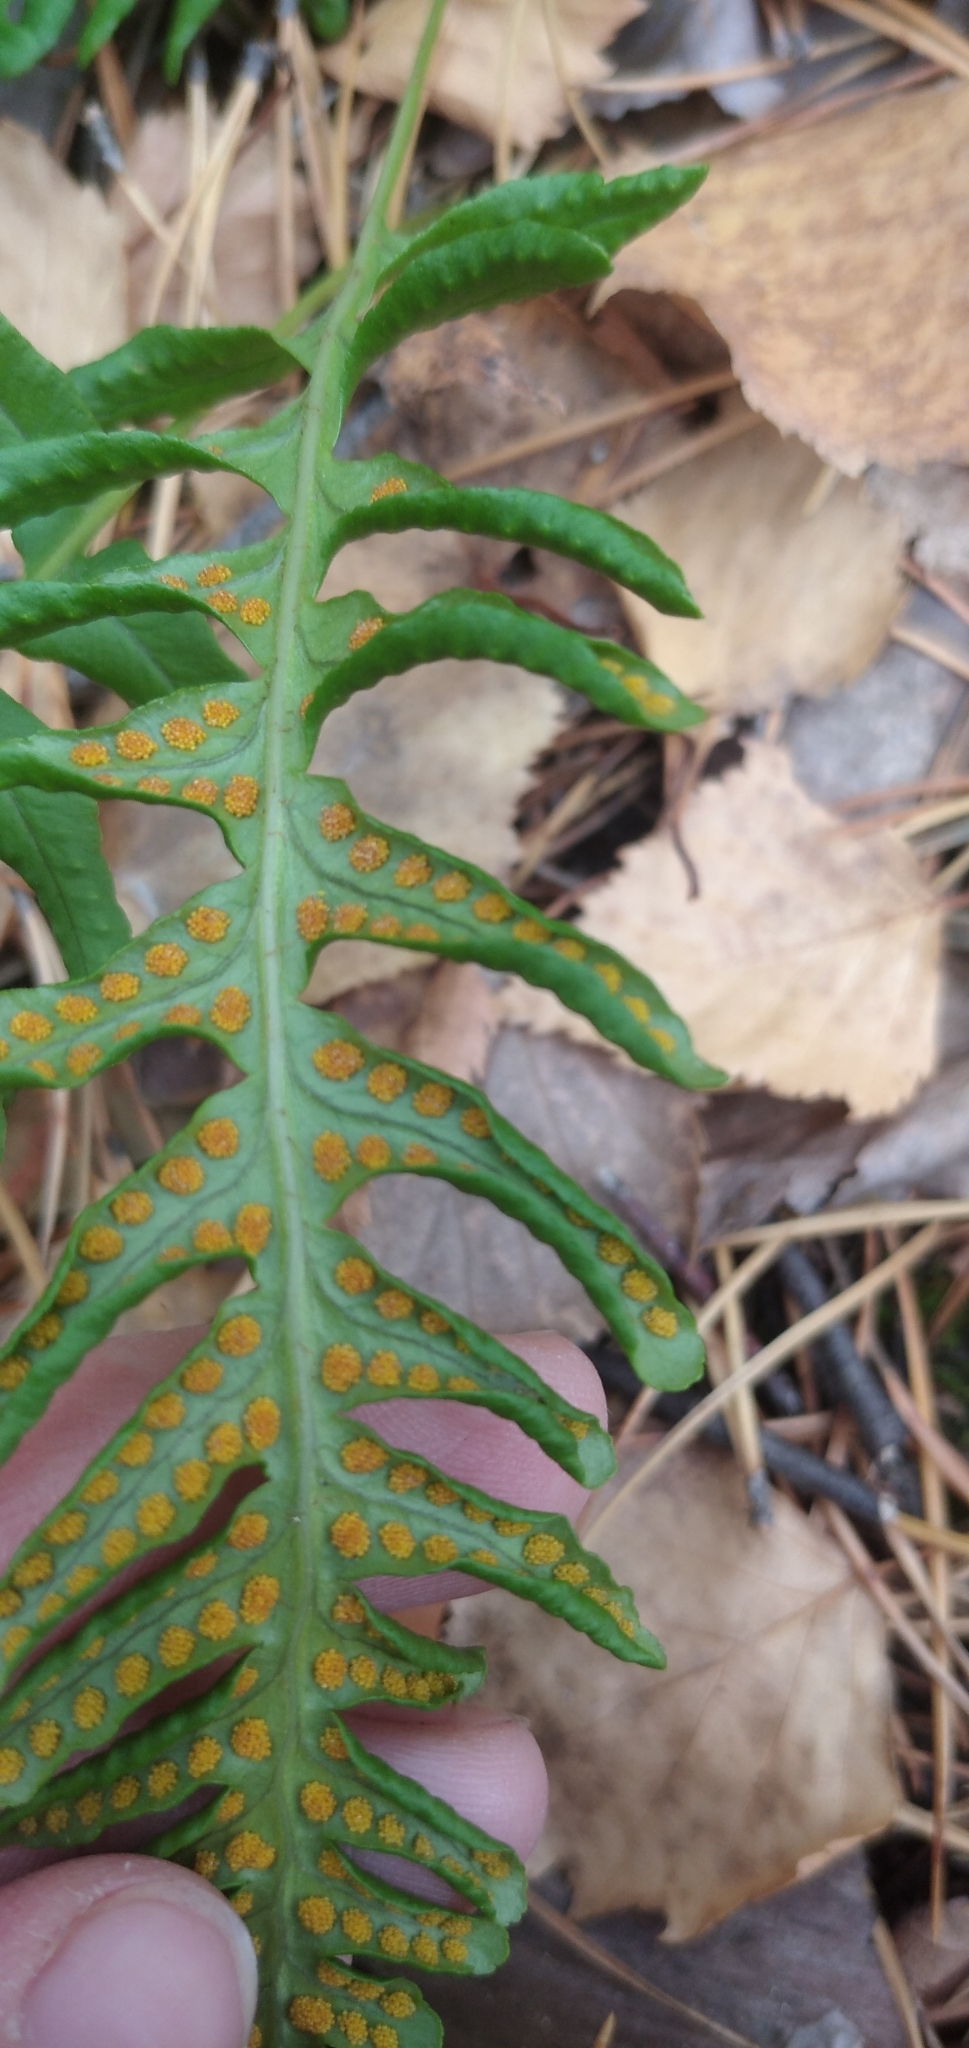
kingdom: Plantae
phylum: Tracheophyta
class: Polypodiopsida
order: Polypodiales
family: Polypodiaceae
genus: Polypodium
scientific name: Polypodium vulgare
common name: Common polypody
